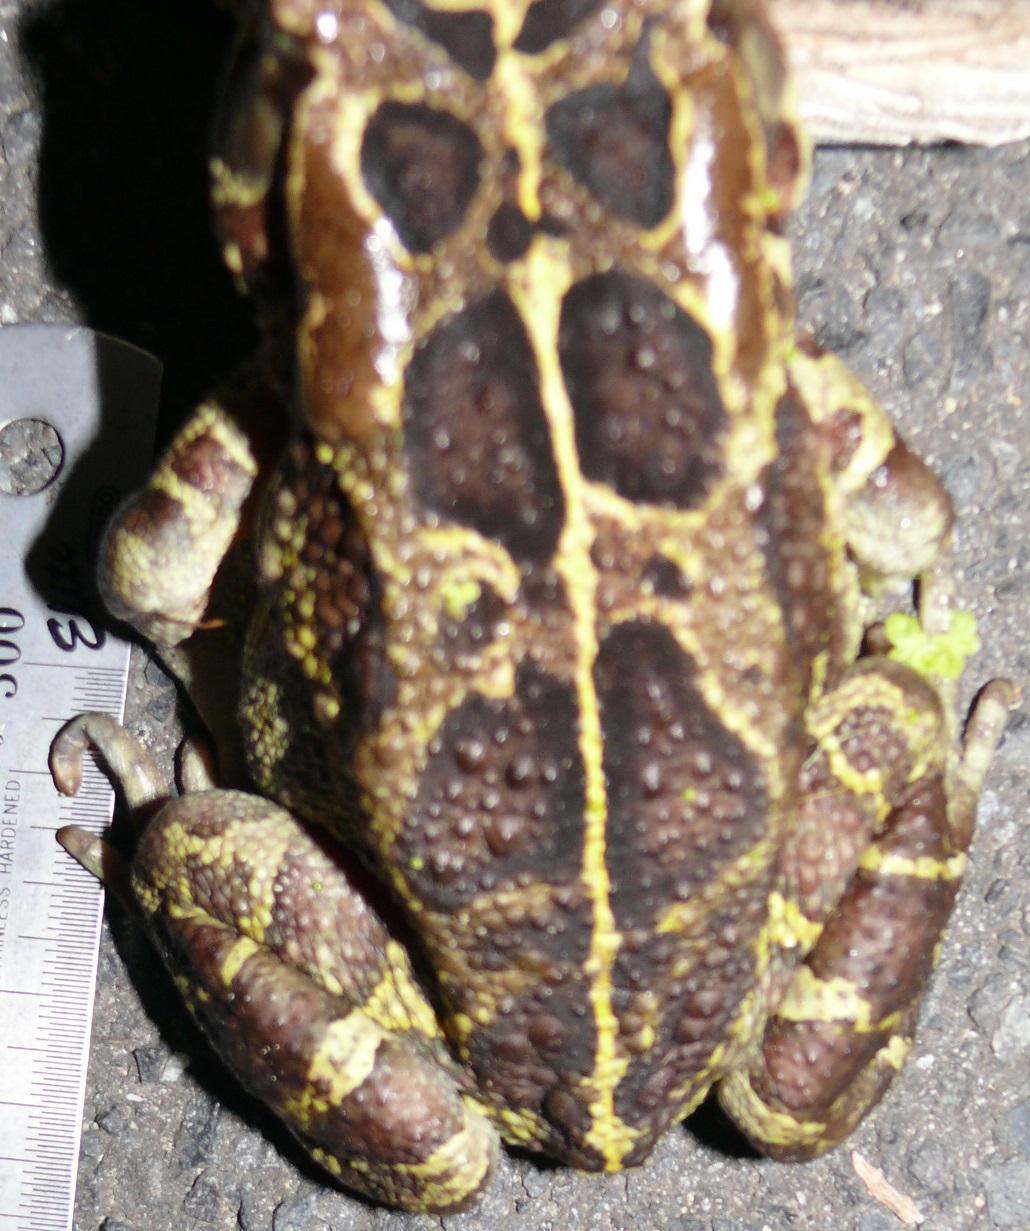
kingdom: Animalia
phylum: Chordata
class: Amphibia
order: Anura
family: Bufonidae
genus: Sclerophrys
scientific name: Sclerophrys pantherina
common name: Panther toad
